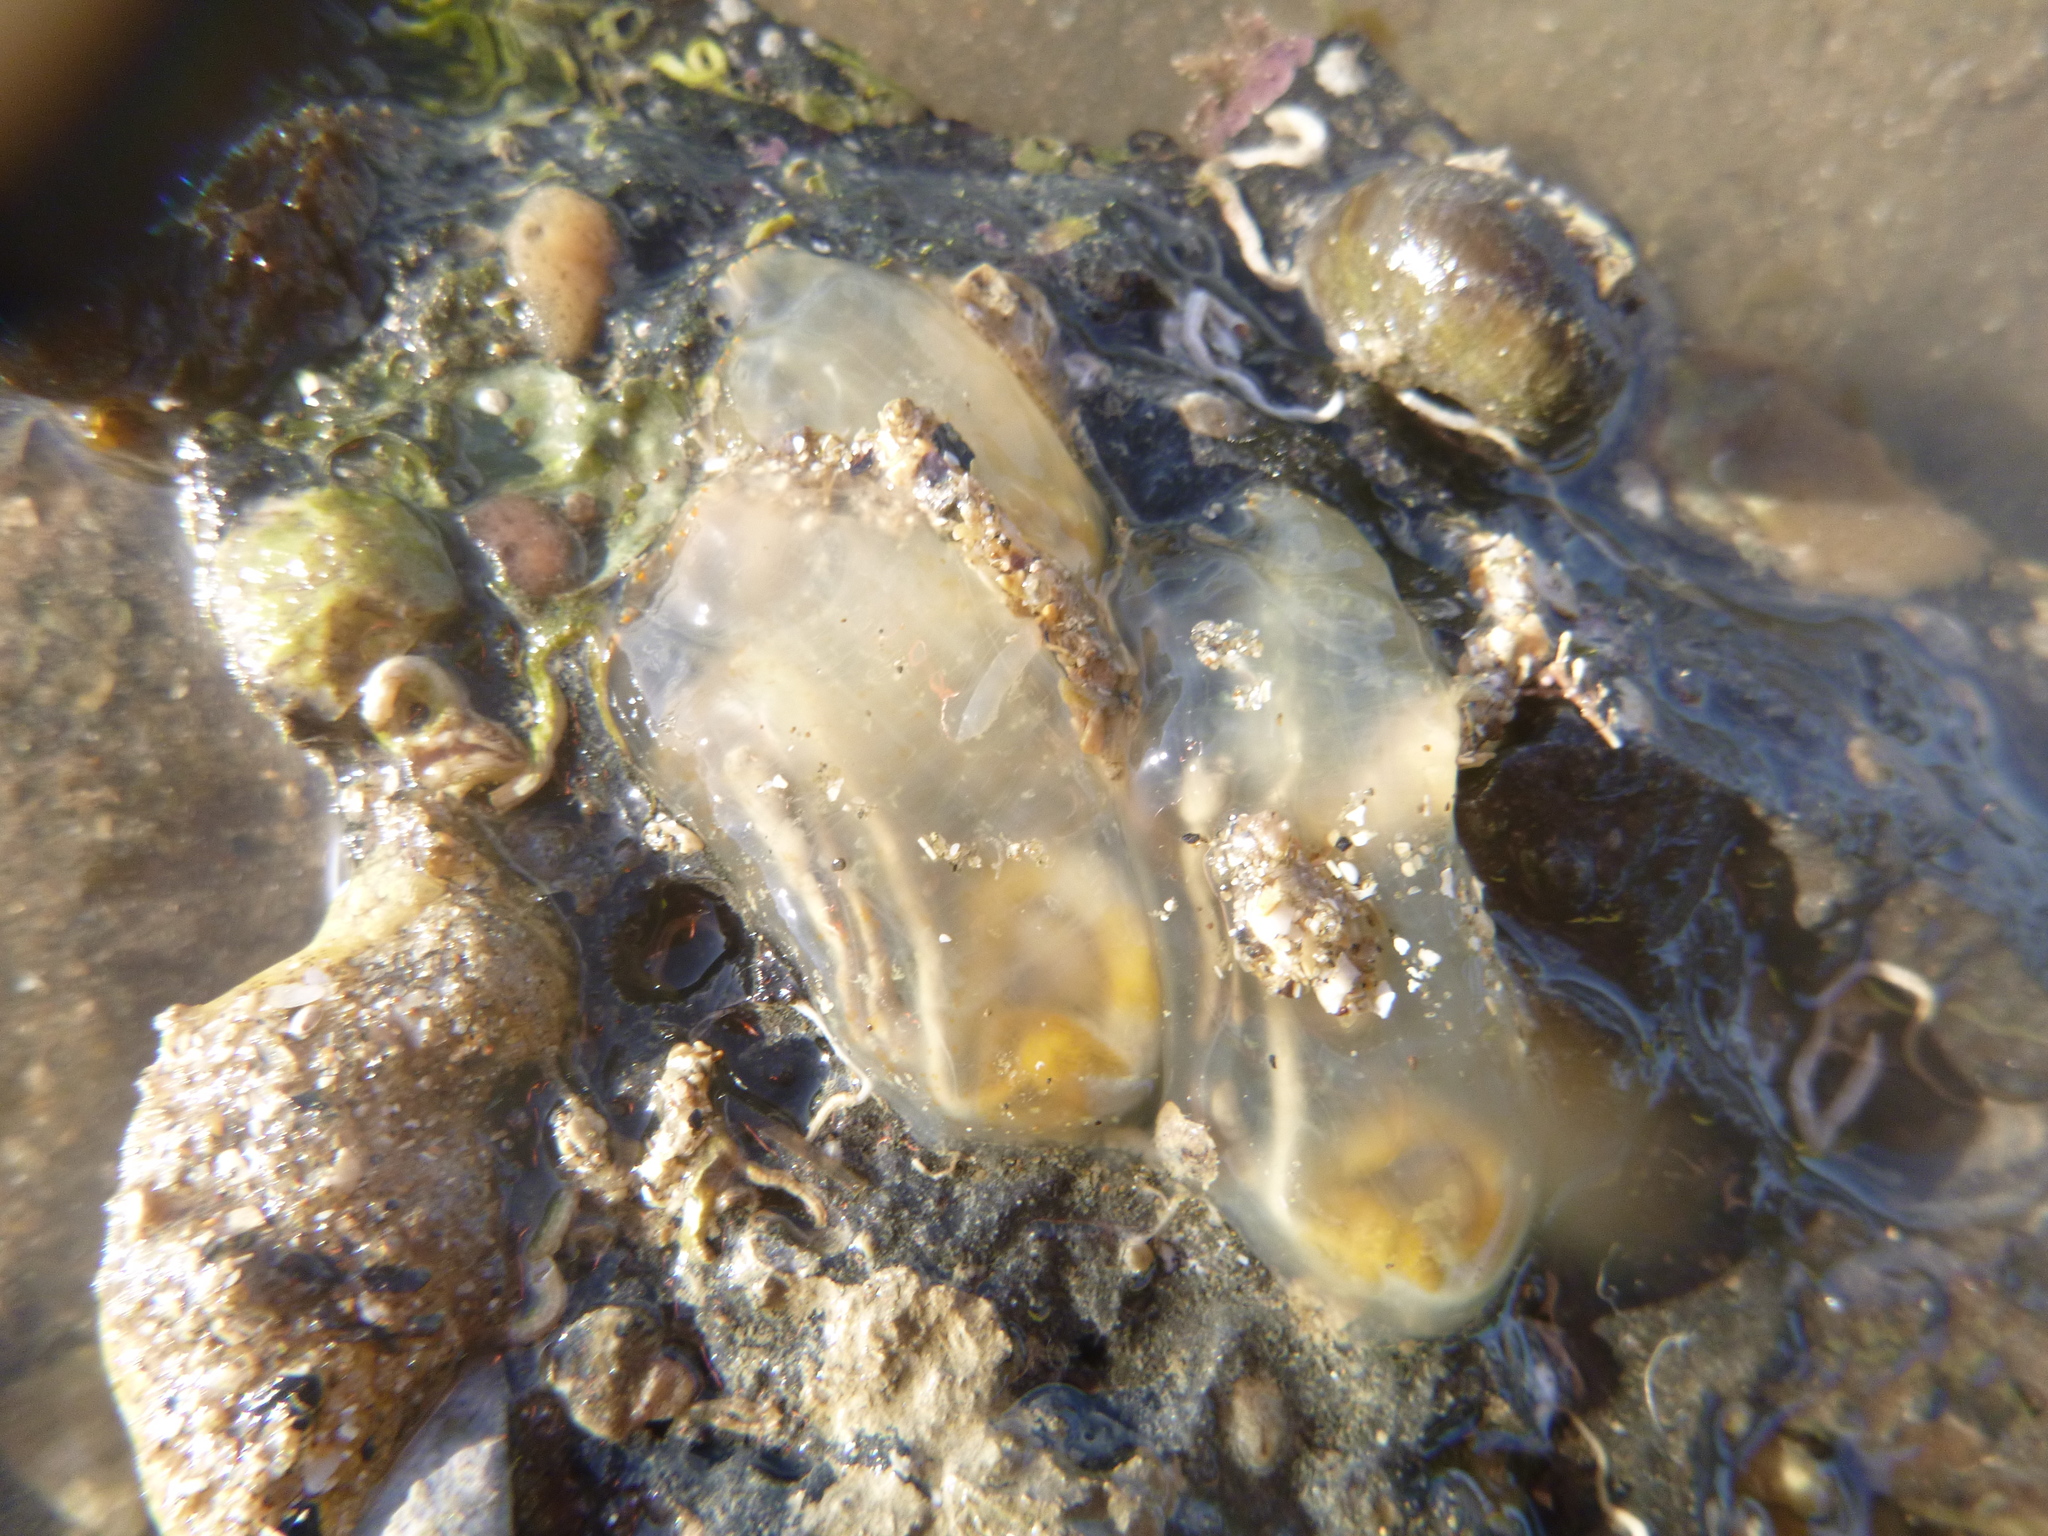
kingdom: Animalia
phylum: Chordata
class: Ascidiacea
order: Phlebobranchia
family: Cionidae
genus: Ciona
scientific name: Ciona savignyi
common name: Tunicate
